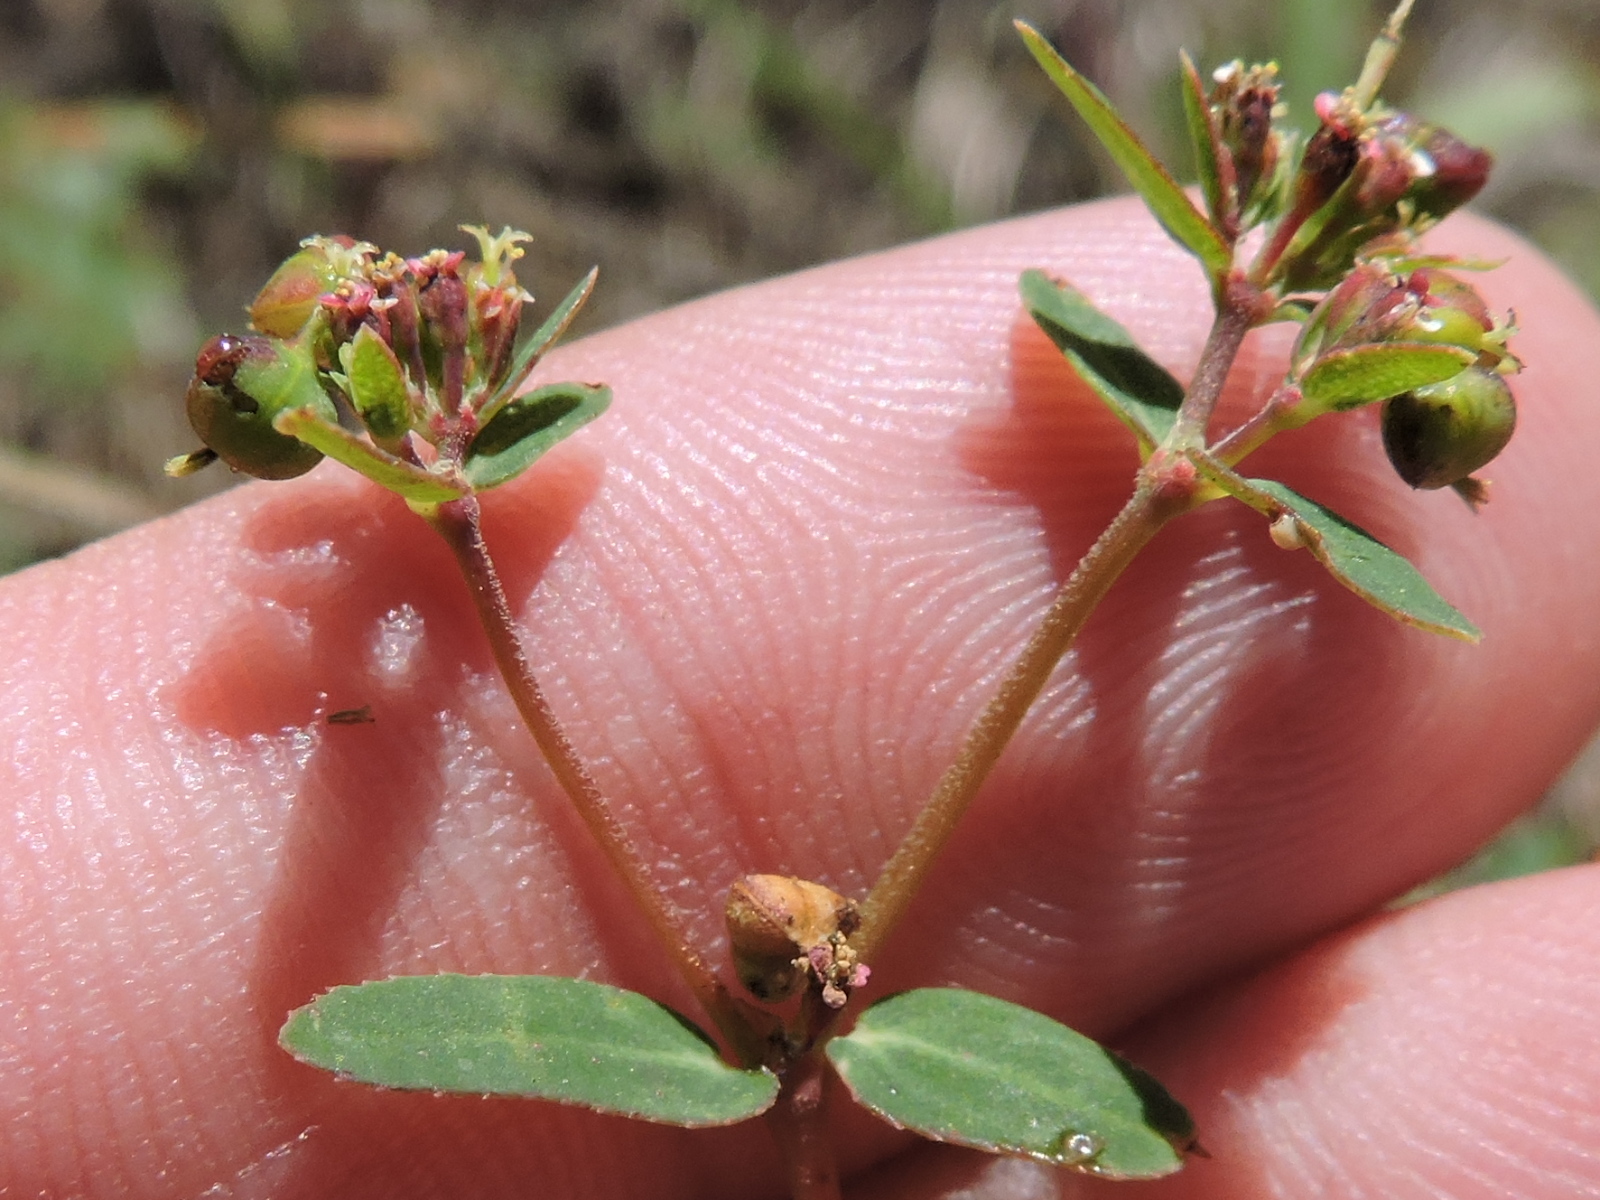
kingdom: Plantae
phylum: Tracheophyta
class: Magnoliopsida
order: Malpighiales
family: Euphorbiaceae
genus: Euphorbia
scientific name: Euphorbia nutans
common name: Eyebane
